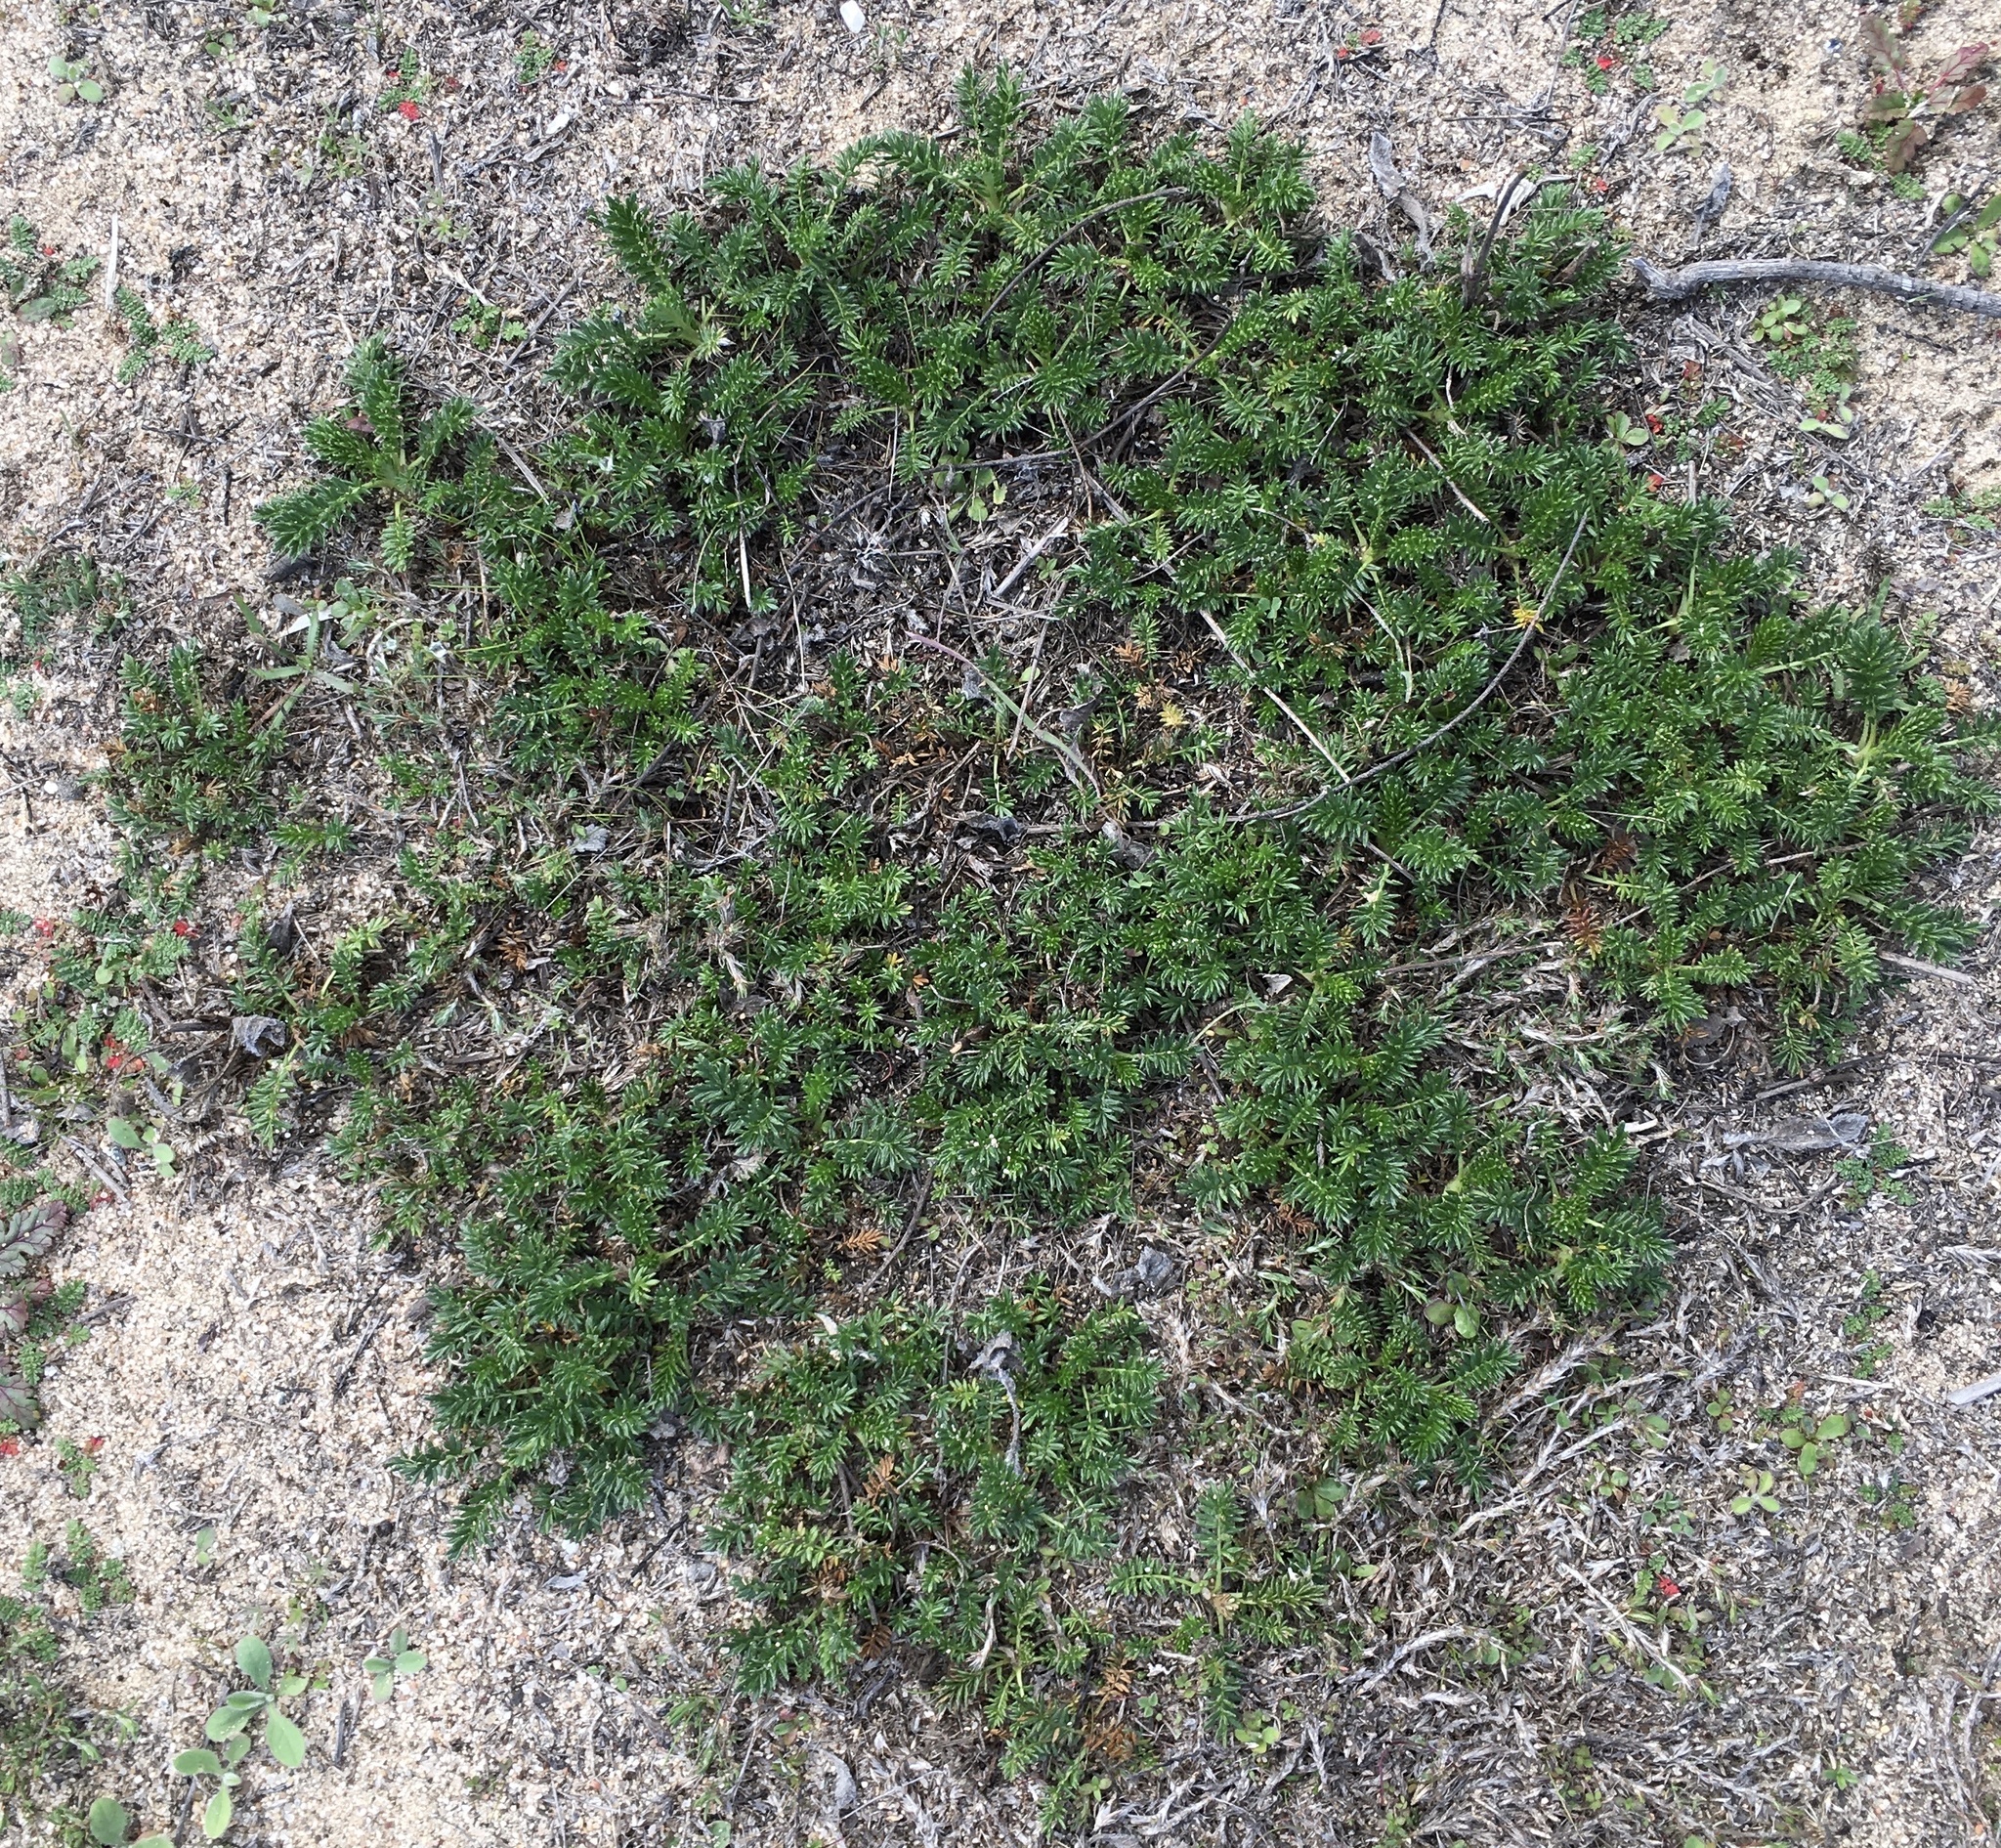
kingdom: Plantae
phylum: Tracheophyta
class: Magnoliopsida
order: Rosales
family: Rosaceae
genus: Acaena
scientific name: Acaena pinnatifida
